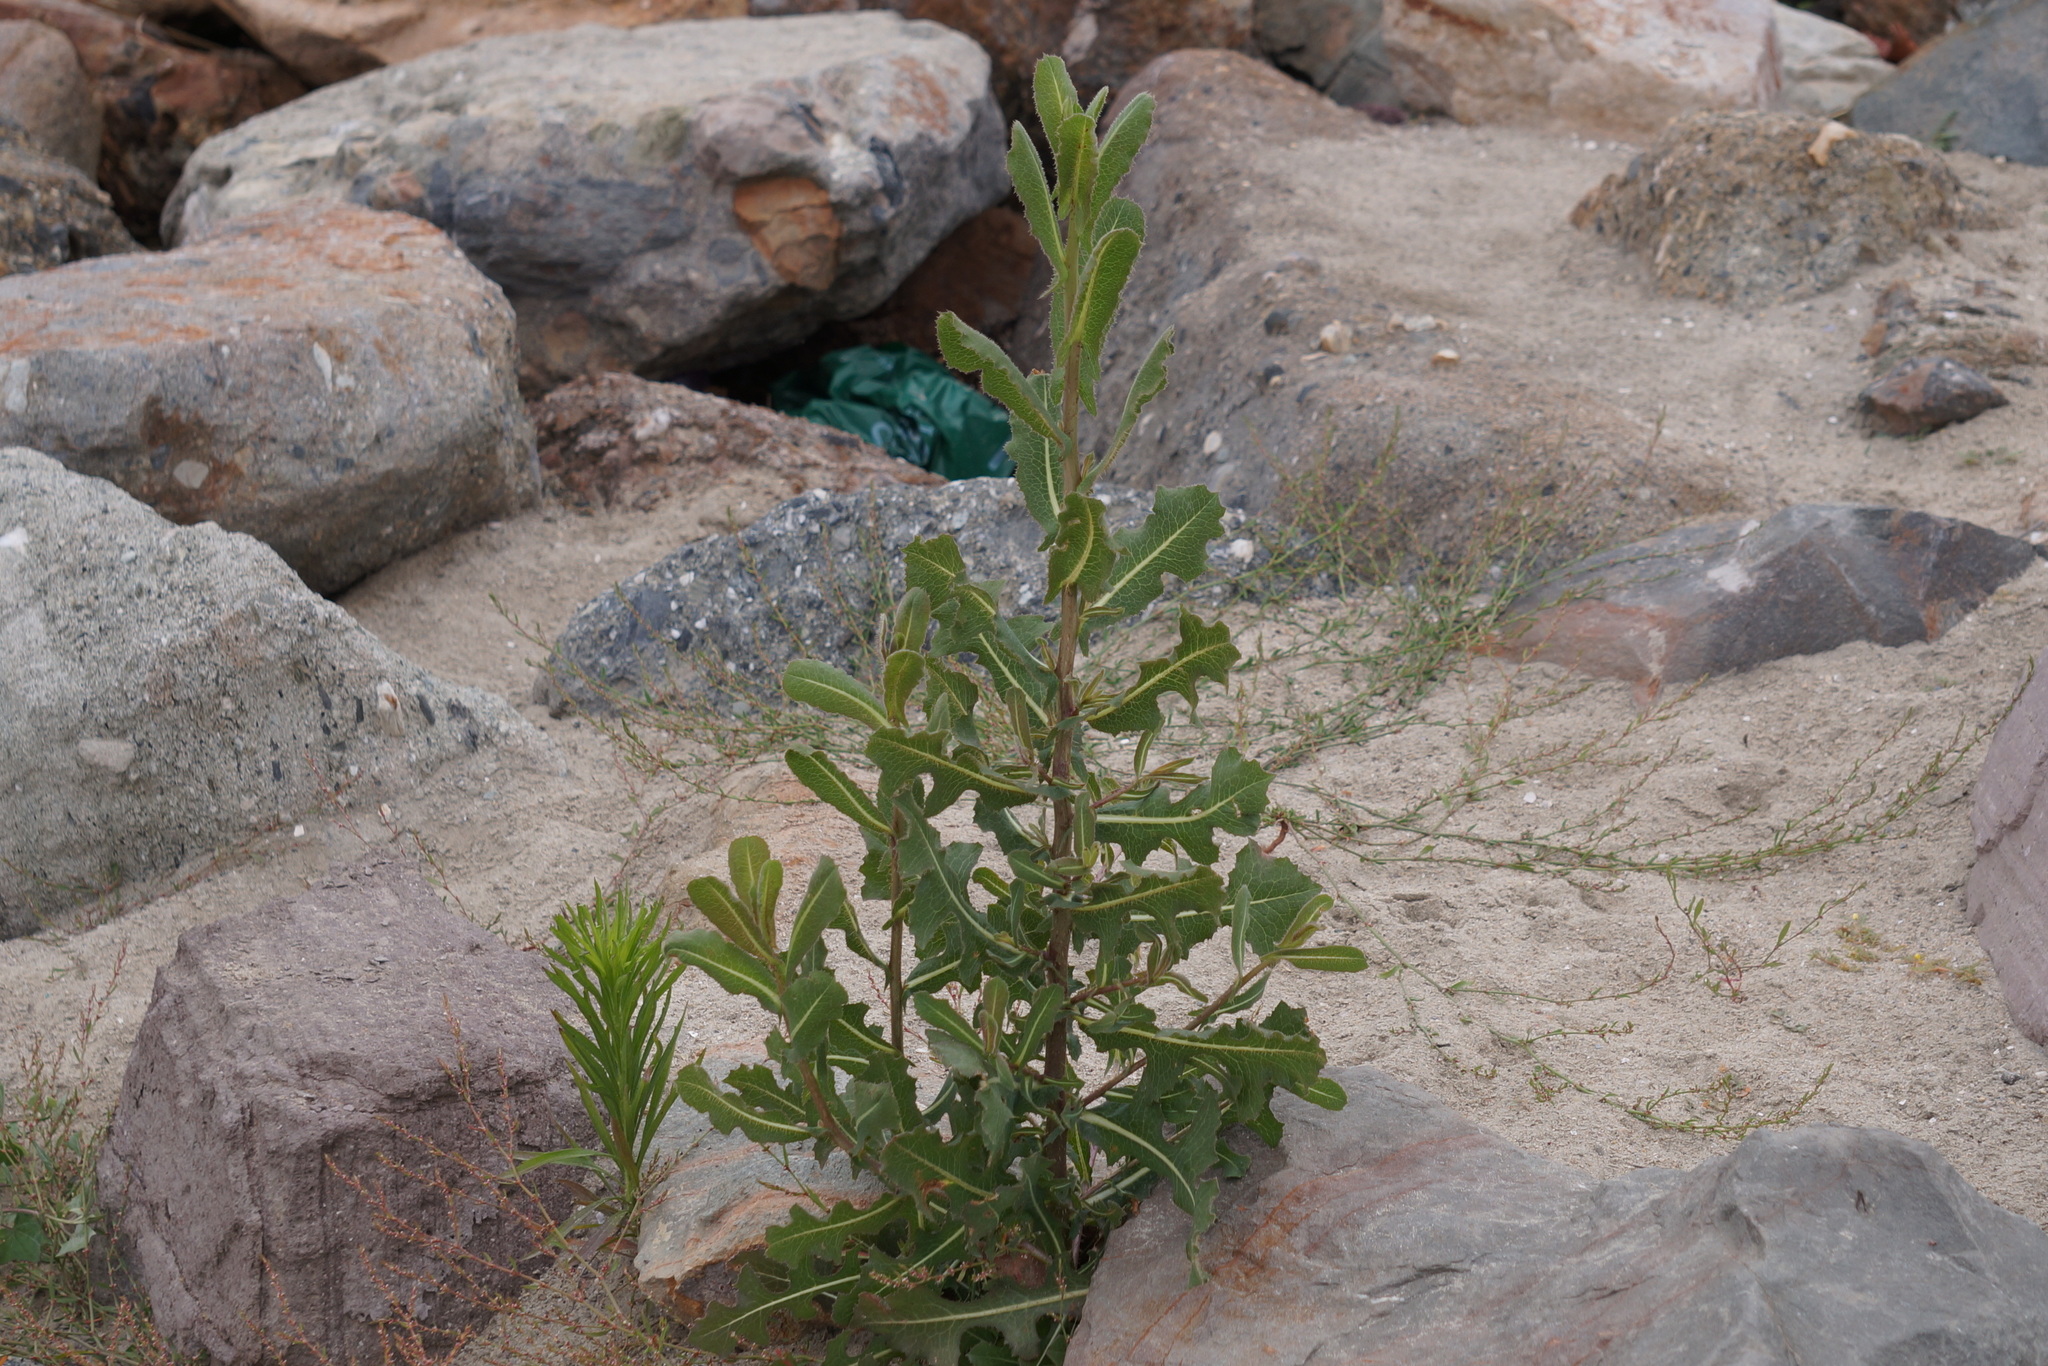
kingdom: Plantae
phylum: Tracheophyta
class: Magnoliopsida
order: Asterales
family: Asteraceae
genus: Lactuca
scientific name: Lactuca serriola
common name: Prickly lettuce
